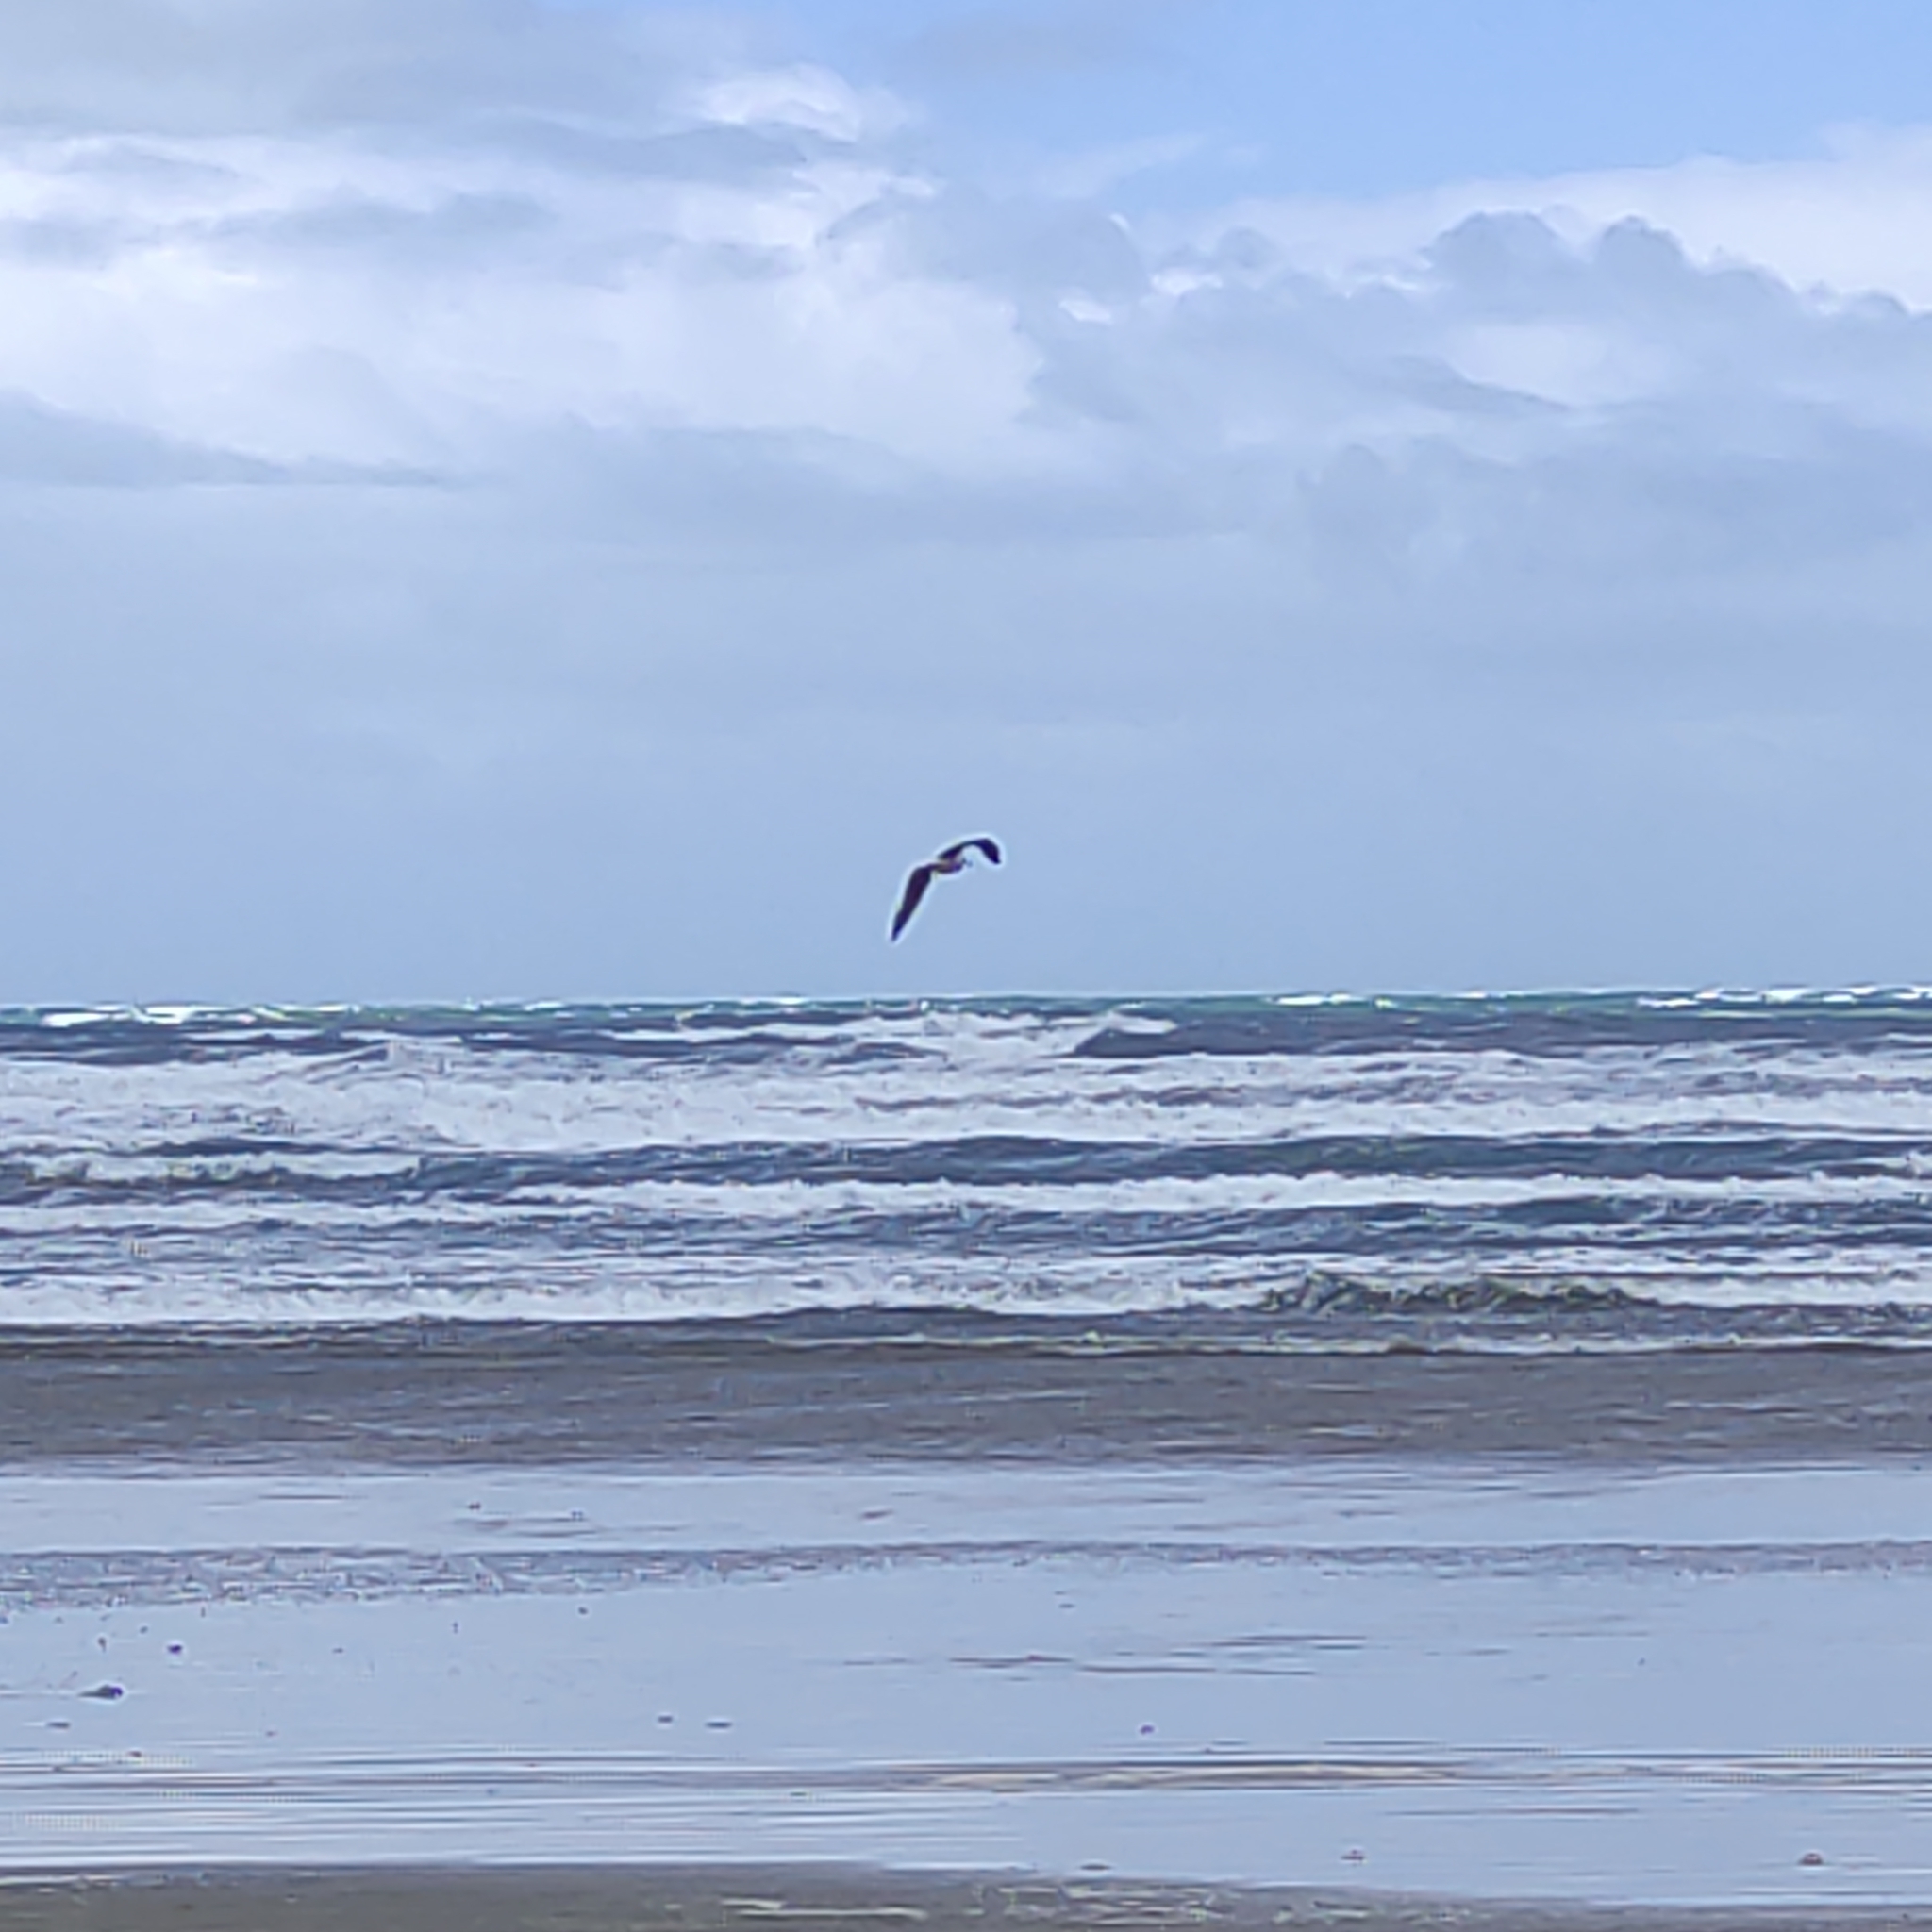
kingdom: Animalia
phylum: Chordata
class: Aves
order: Charadriiformes
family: Laridae
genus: Larus
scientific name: Larus dominicanus
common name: Kelp gull
